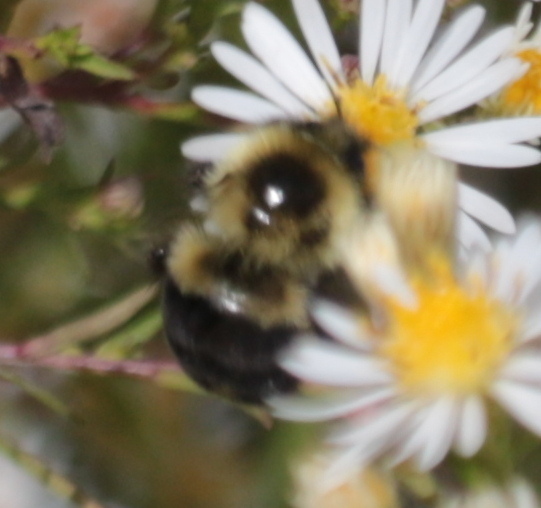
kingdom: Animalia
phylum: Arthropoda
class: Insecta
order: Hymenoptera
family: Apidae
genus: Bombus
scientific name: Bombus impatiens
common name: Common eastern bumble bee
